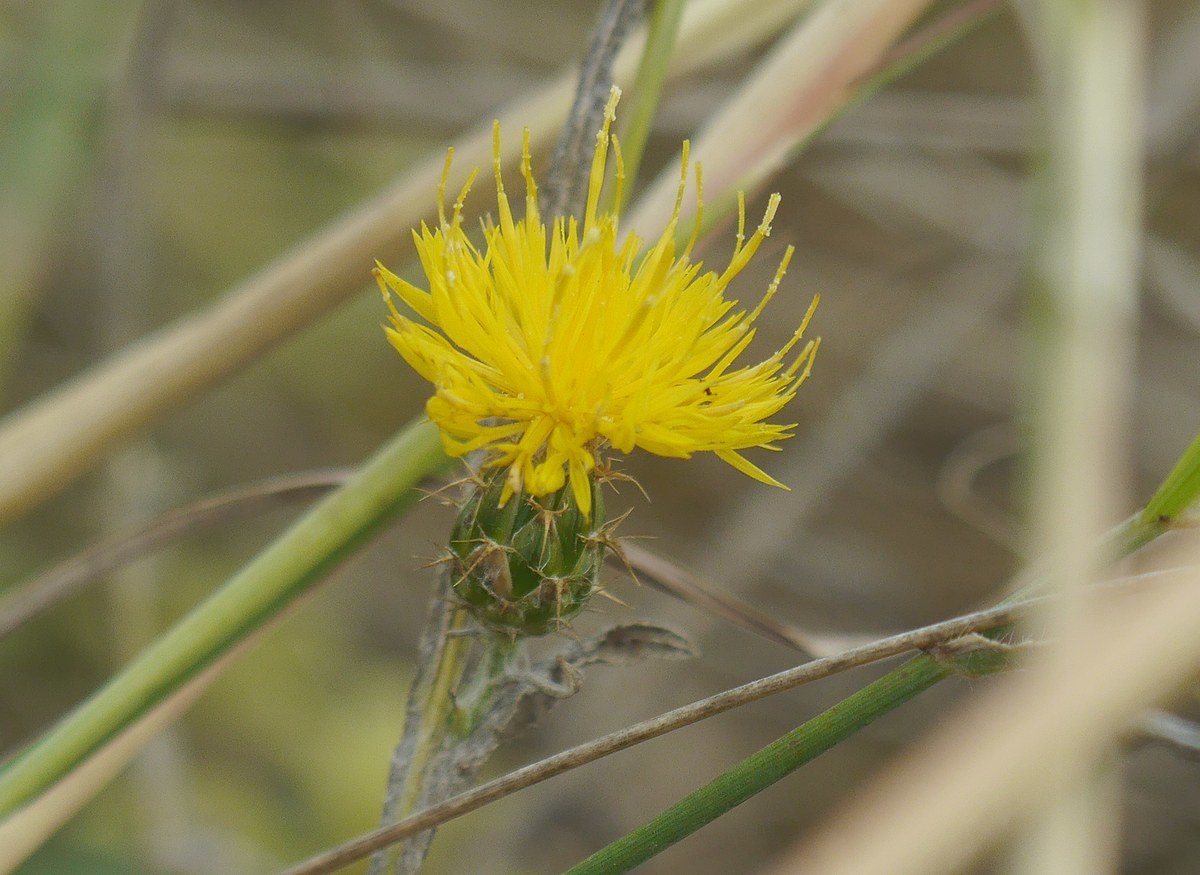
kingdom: Plantae
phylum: Tracheophyta
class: Magnoliopsida
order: Asterales
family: Asteraceae
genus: Centaurea
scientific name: Centaurea solstitialis
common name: Yellow star-thistle
